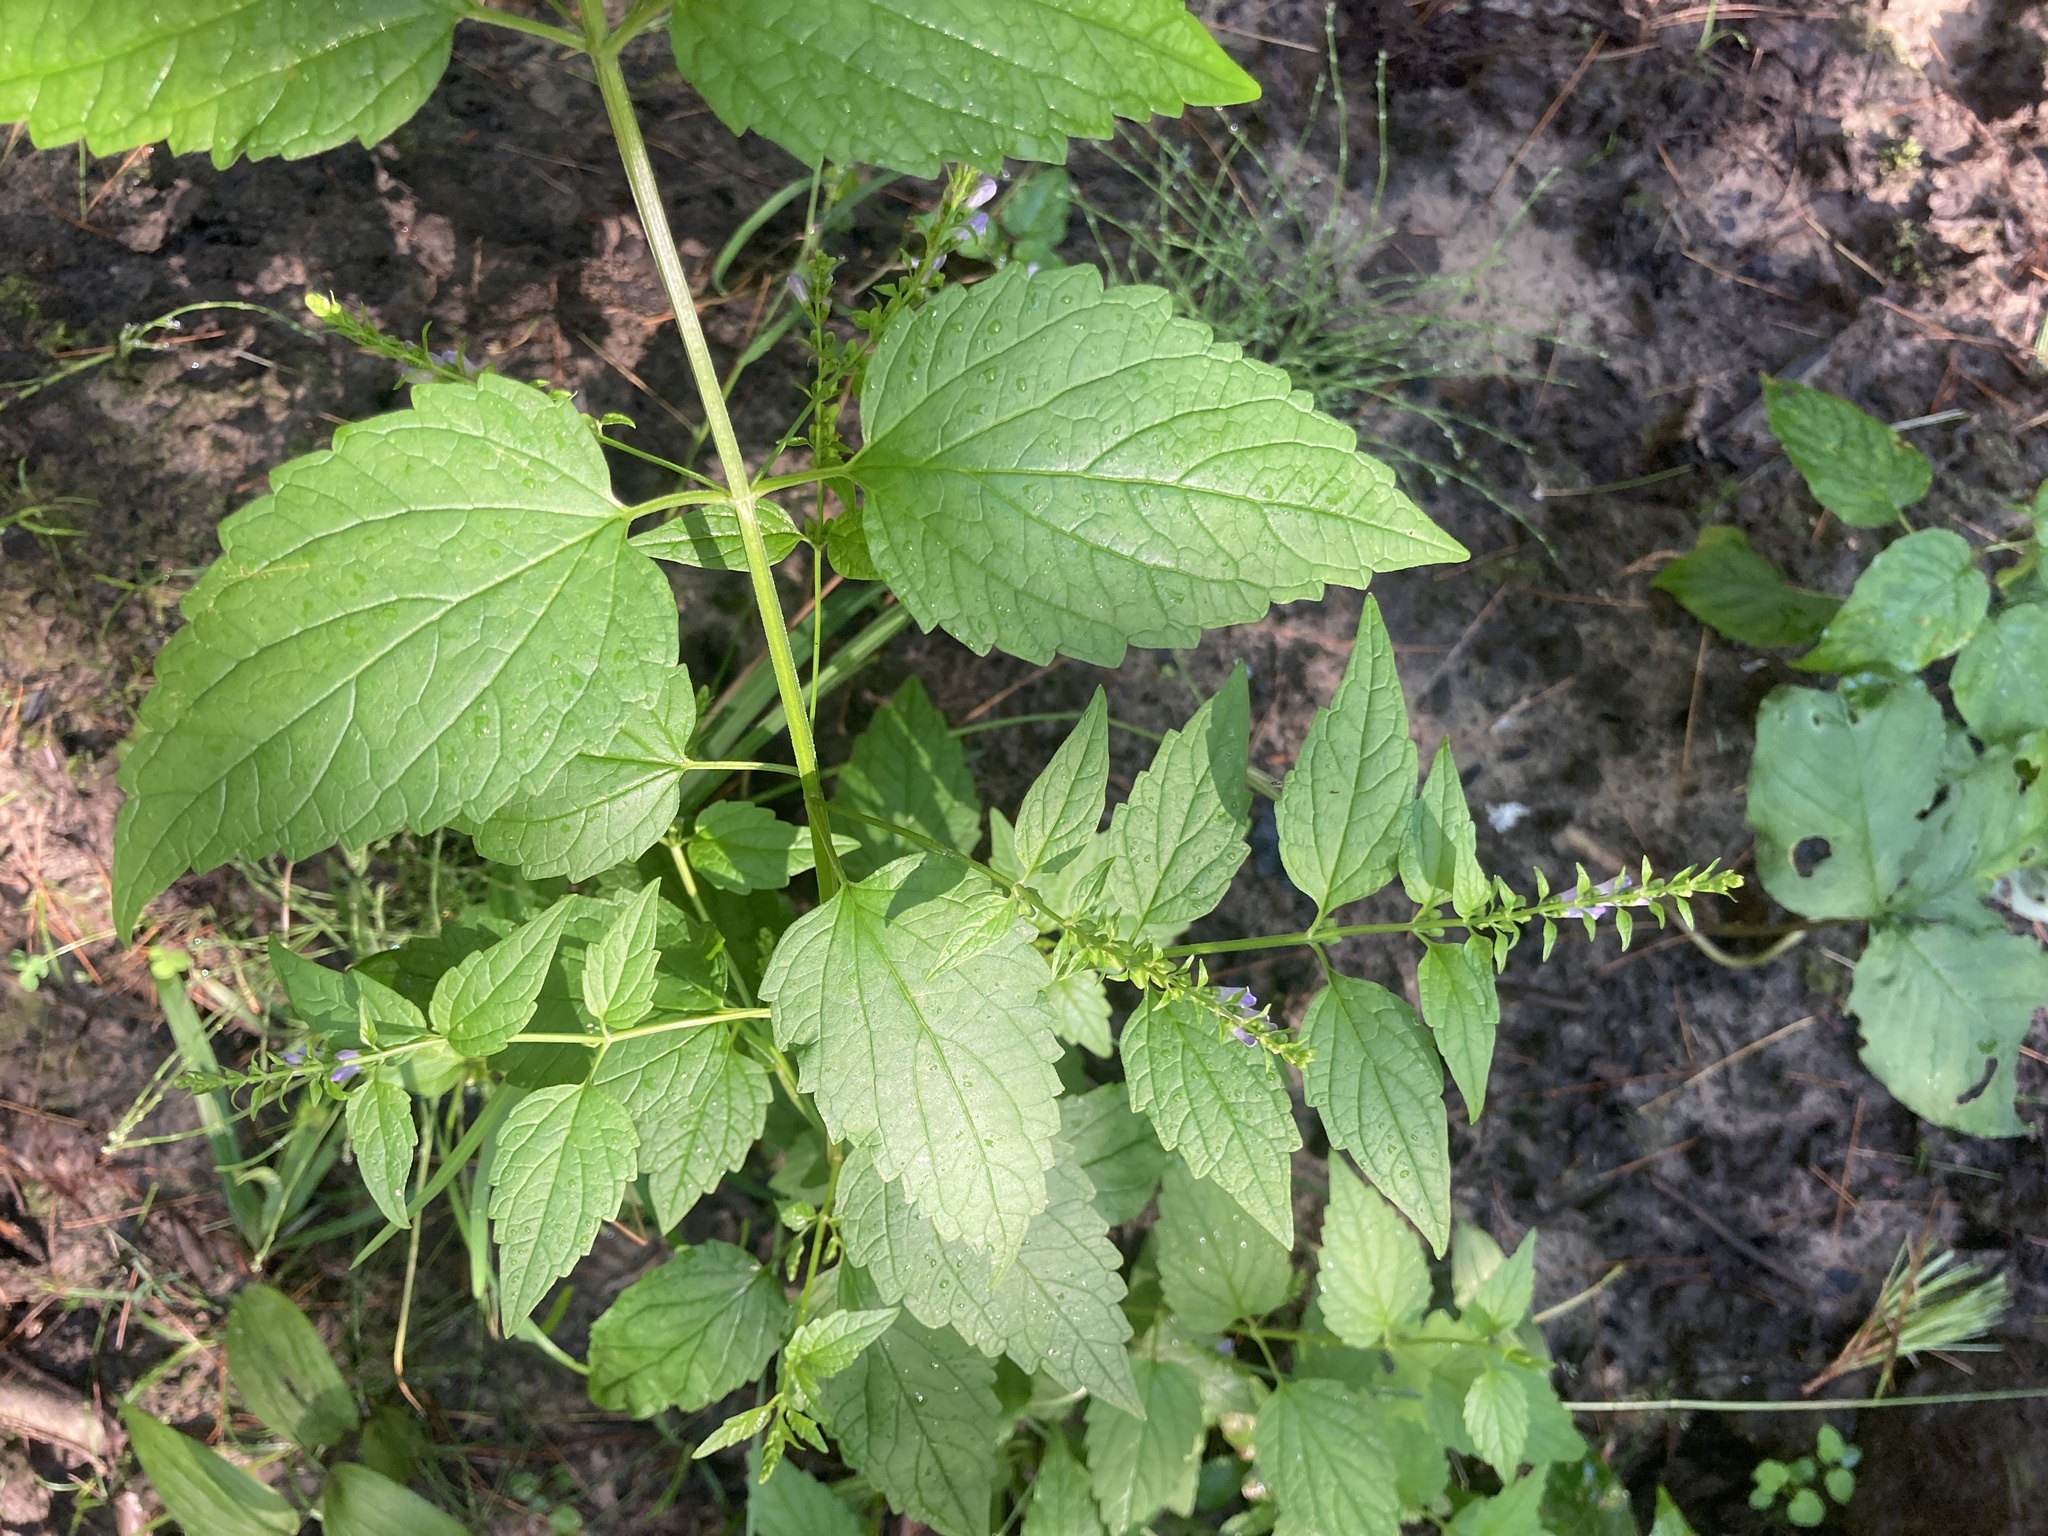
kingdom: Plantae
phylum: Tracheophyta
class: Magnoliopsida
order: Lamiales
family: Lamiaceae
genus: Scutellaria
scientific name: Scutellaria lateriflora
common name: Blue skullcap
